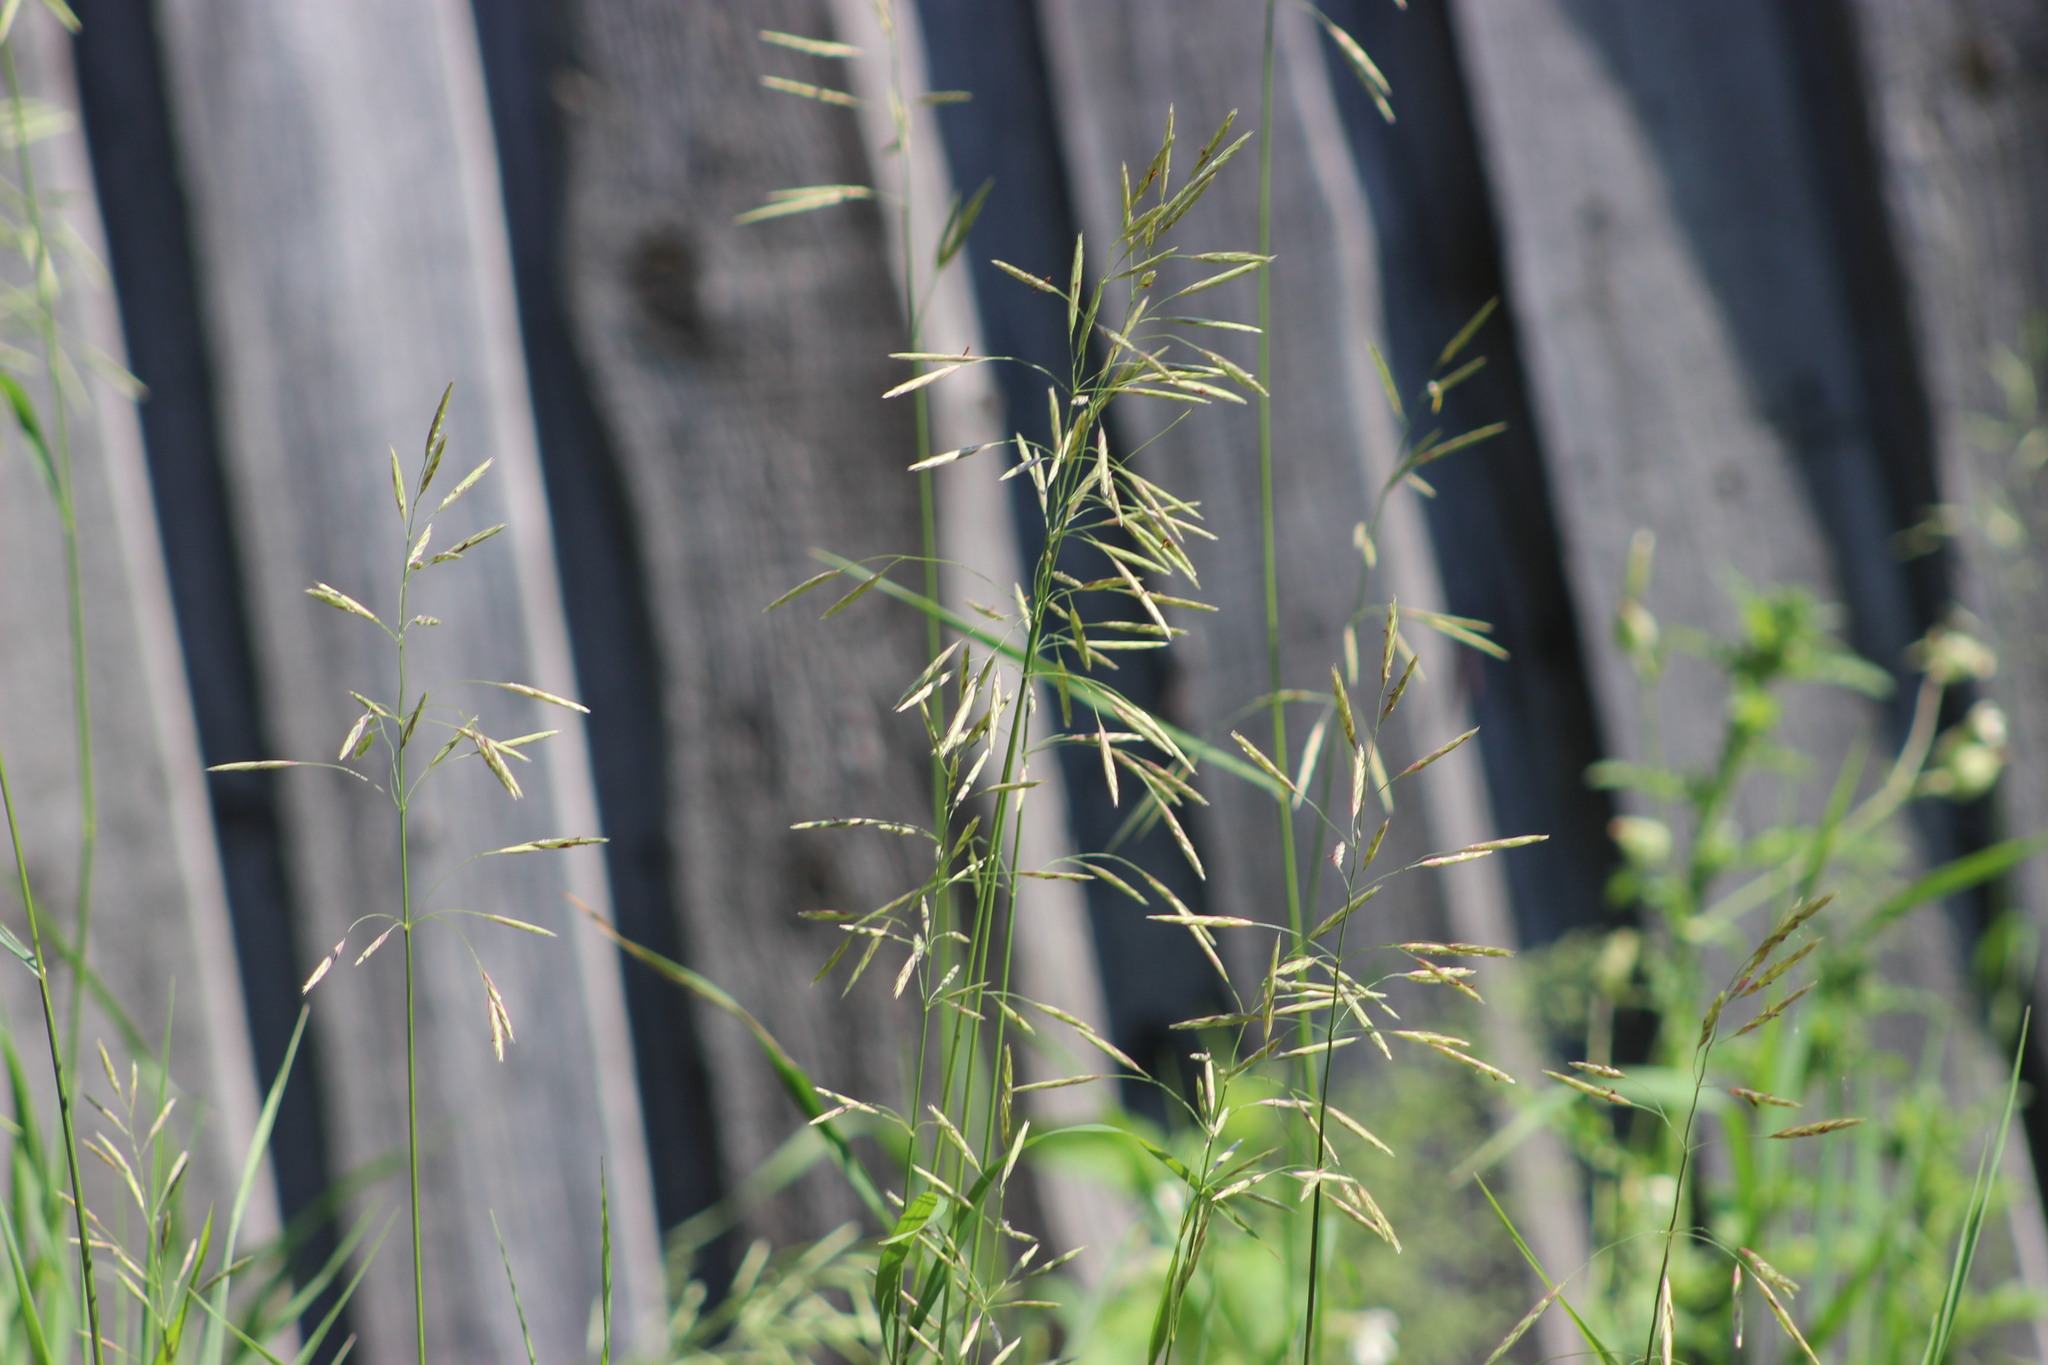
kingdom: Plantae
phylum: Tracheophyta
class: Liliopsida
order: Poales
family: Poaceae
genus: Bromus
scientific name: Bromus inermis
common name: Smooth brome
